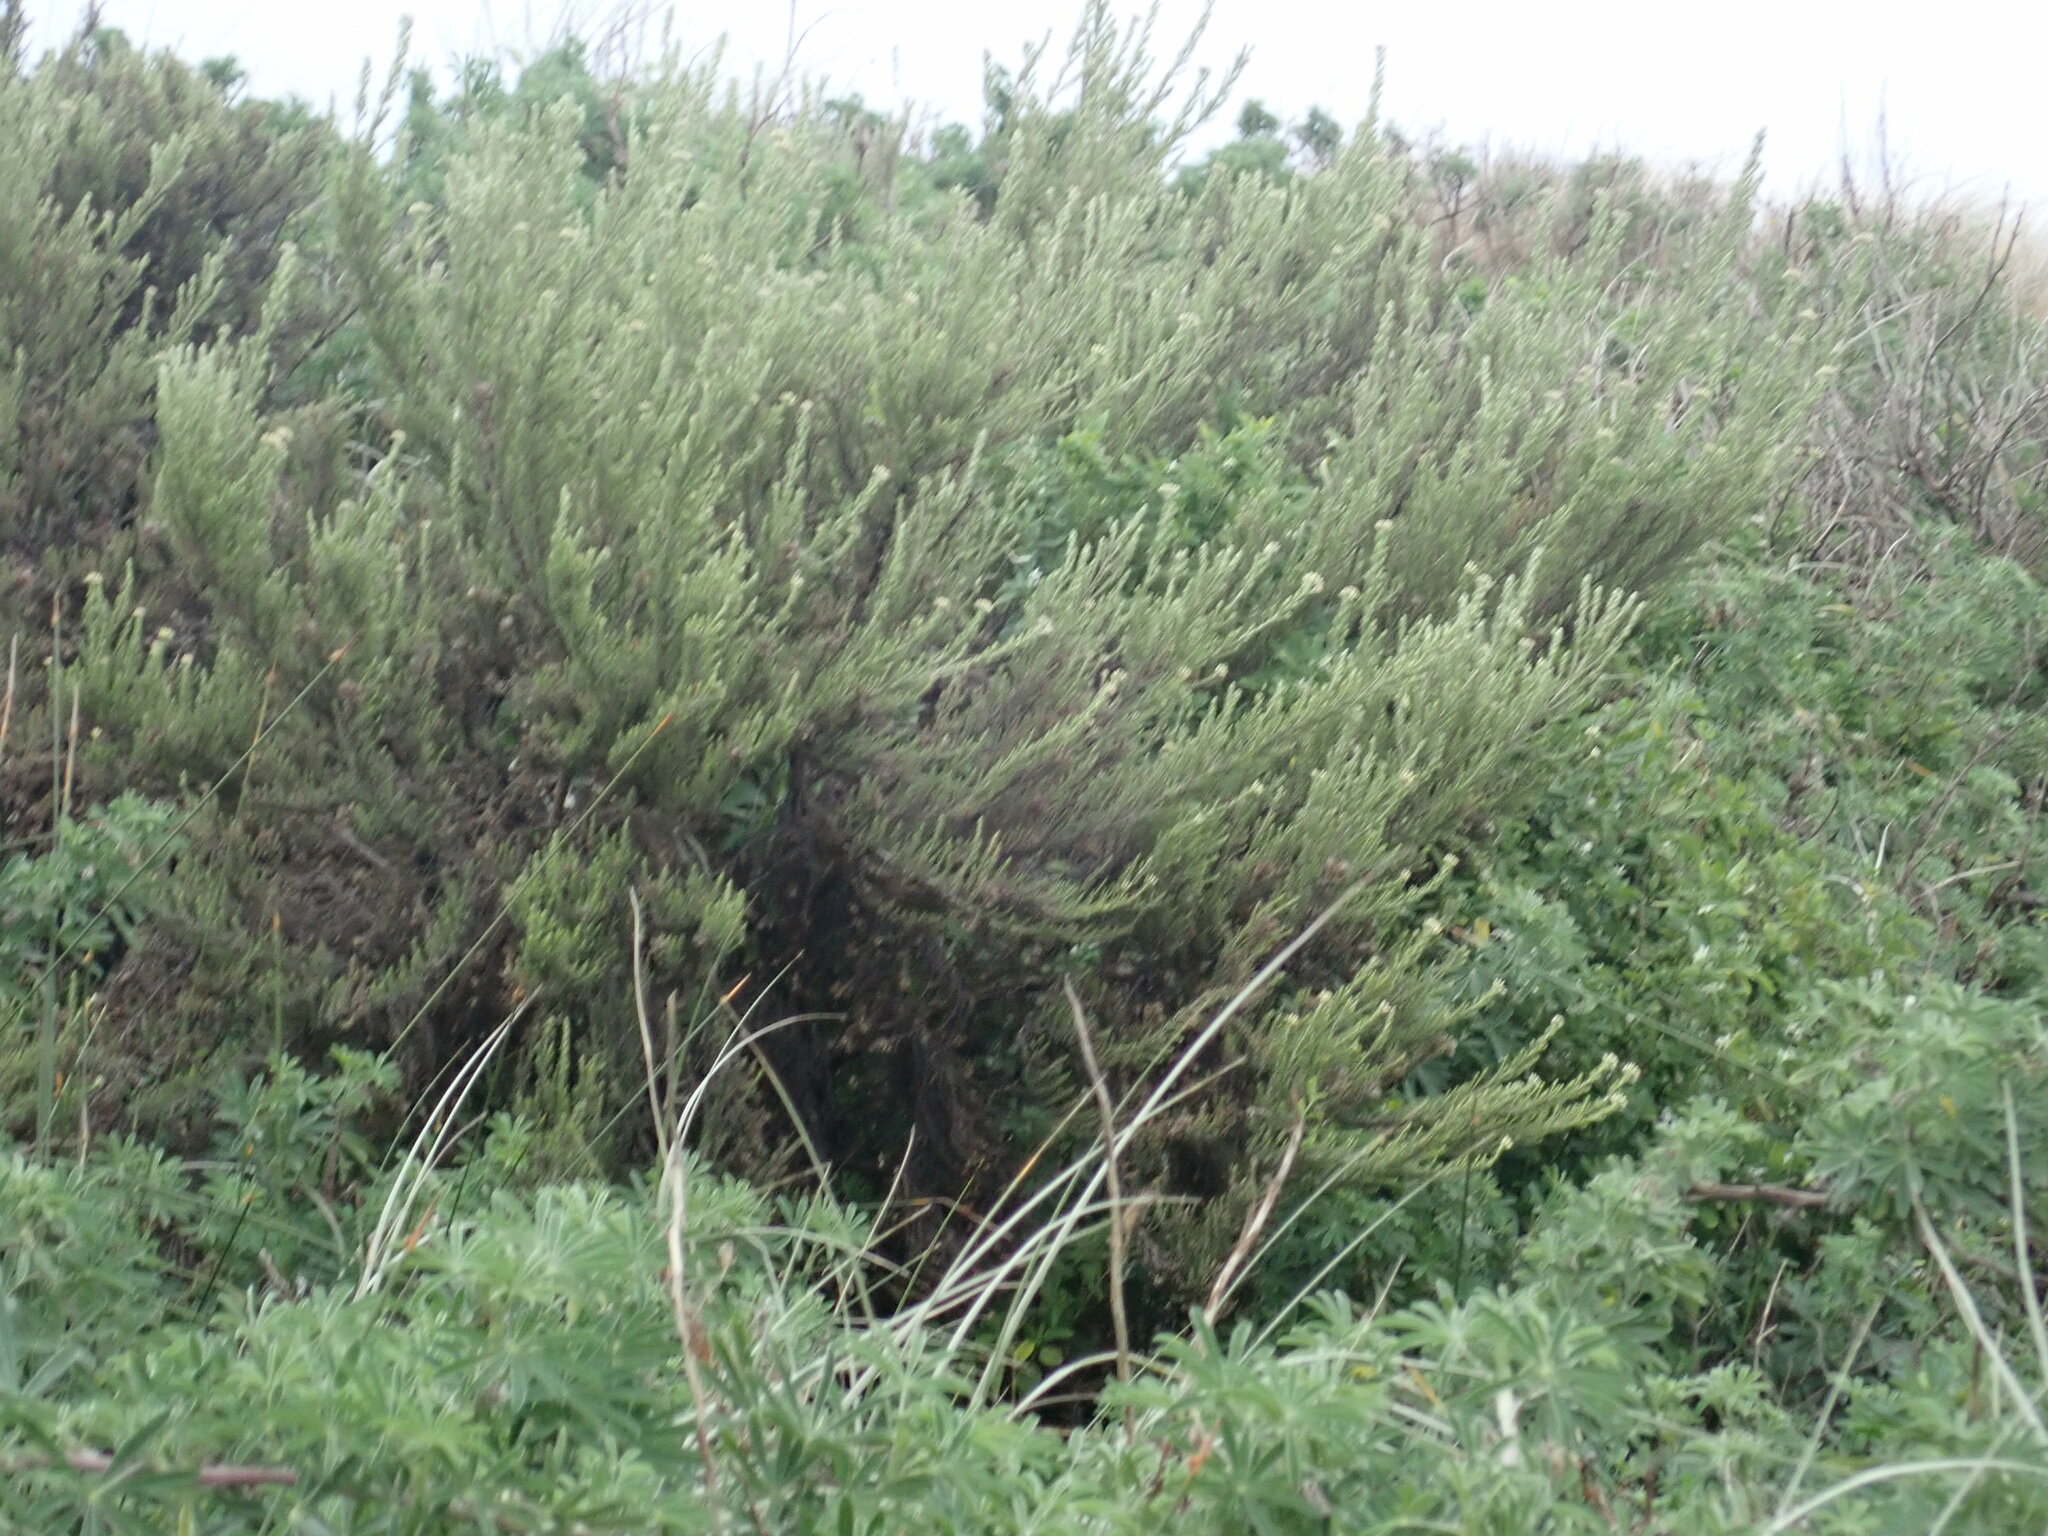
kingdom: Plantae
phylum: Tracheophyta
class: Magnoliopsida
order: Asterales
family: Asteraceae
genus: Ozothamnus
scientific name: Ozothamnus leptophyllus
